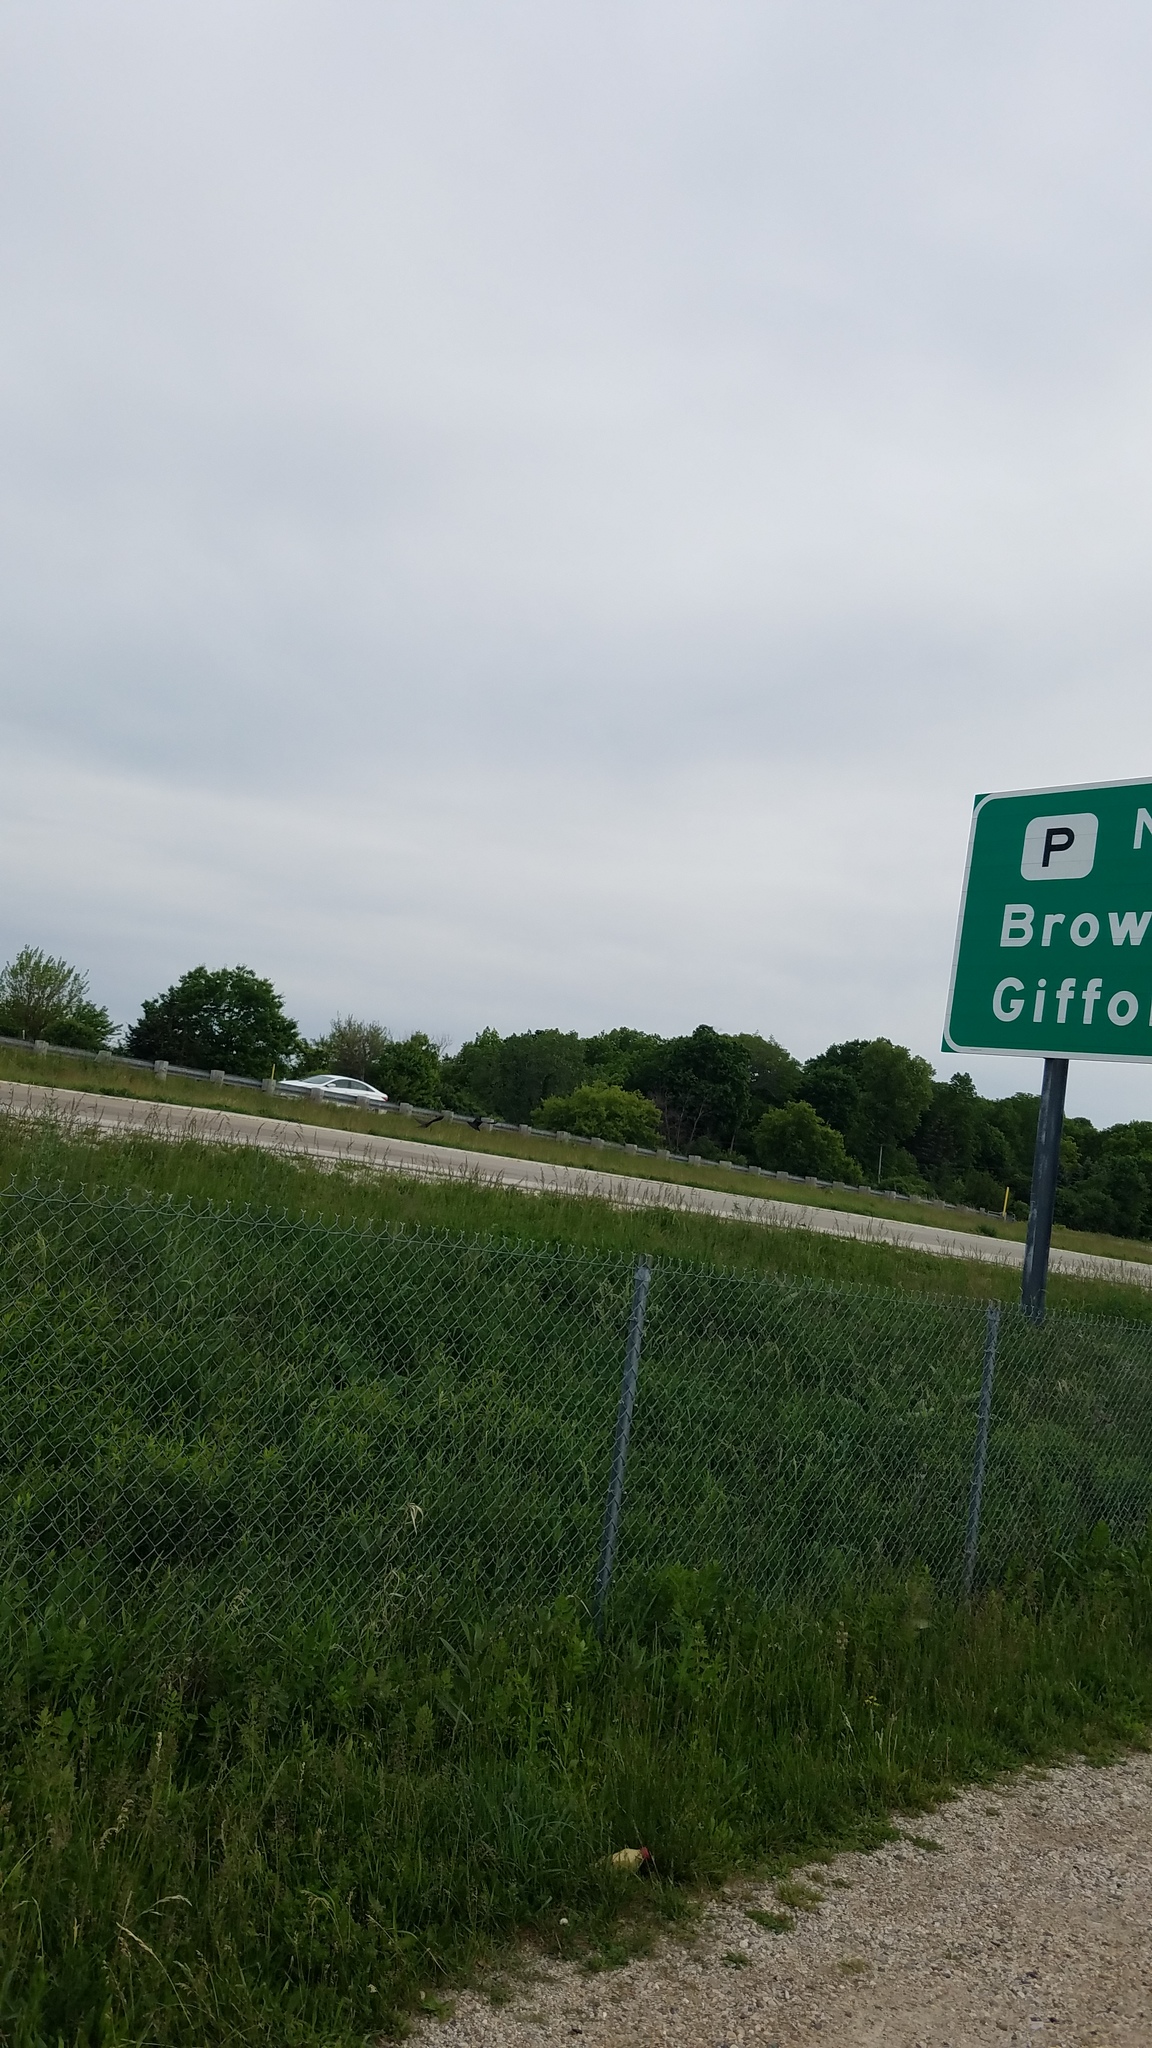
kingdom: Animalia
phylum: Chordata
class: Aves
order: Passeriformes
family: Icteridae
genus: Quiscalus
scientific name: Quiscalus quiscula
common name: Common grackle
